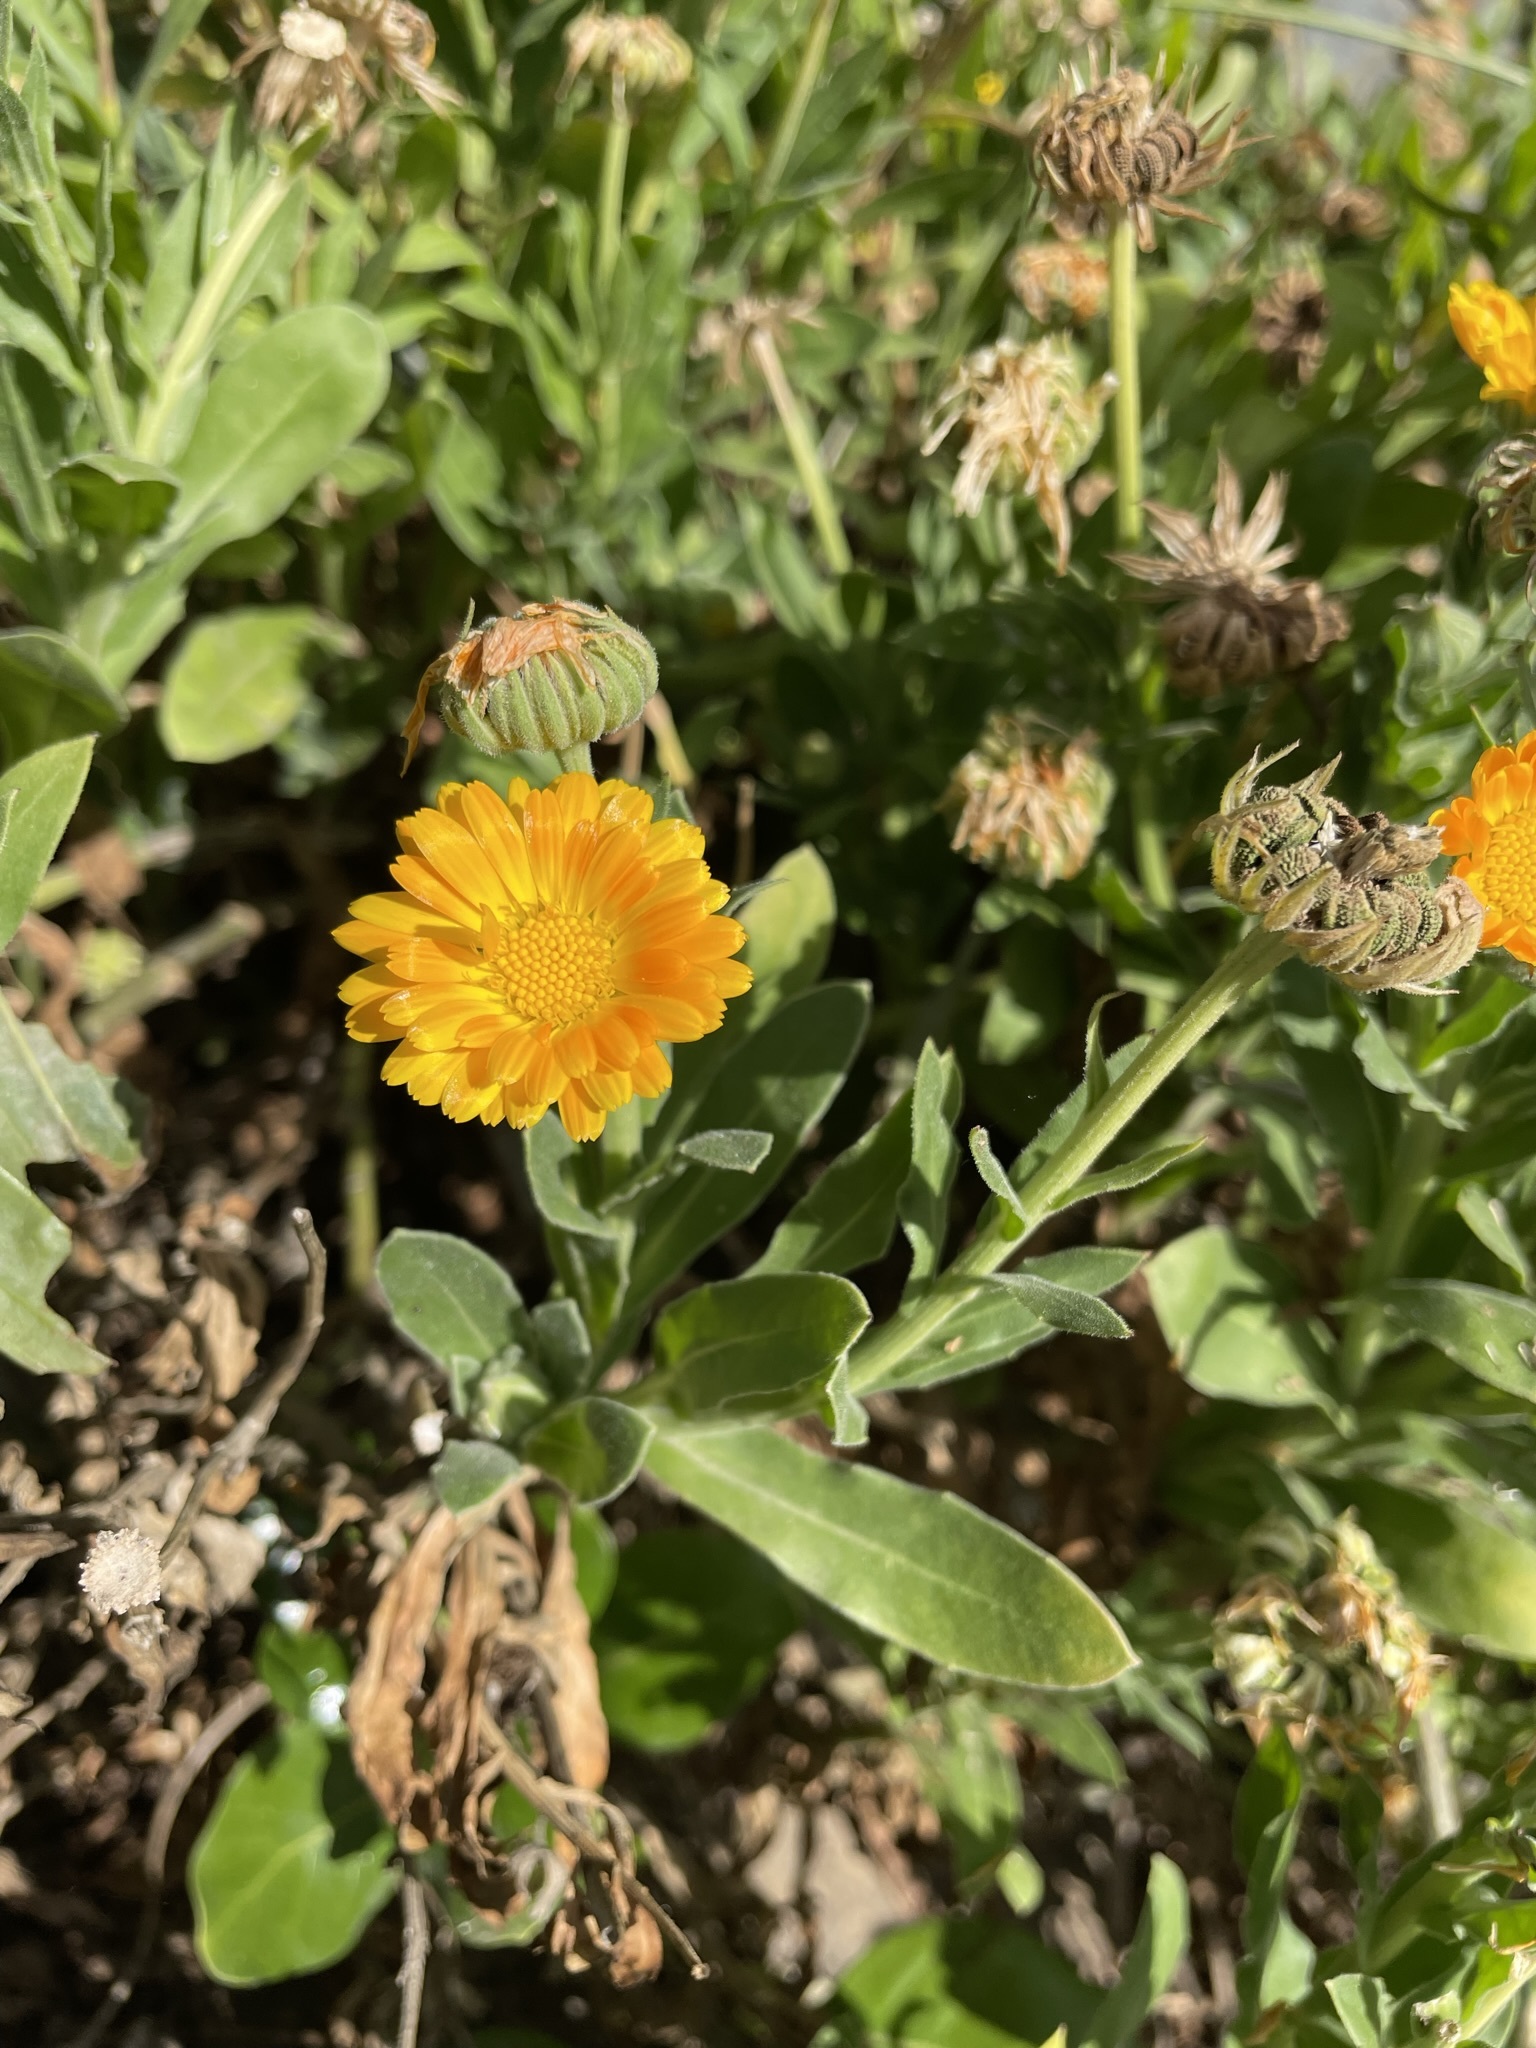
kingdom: Plantae
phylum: Tracheophyta
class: Magnoliopsida
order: Asterales
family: Asteraceae
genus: Calendula
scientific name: Calendula officinalis
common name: Pot marigold
